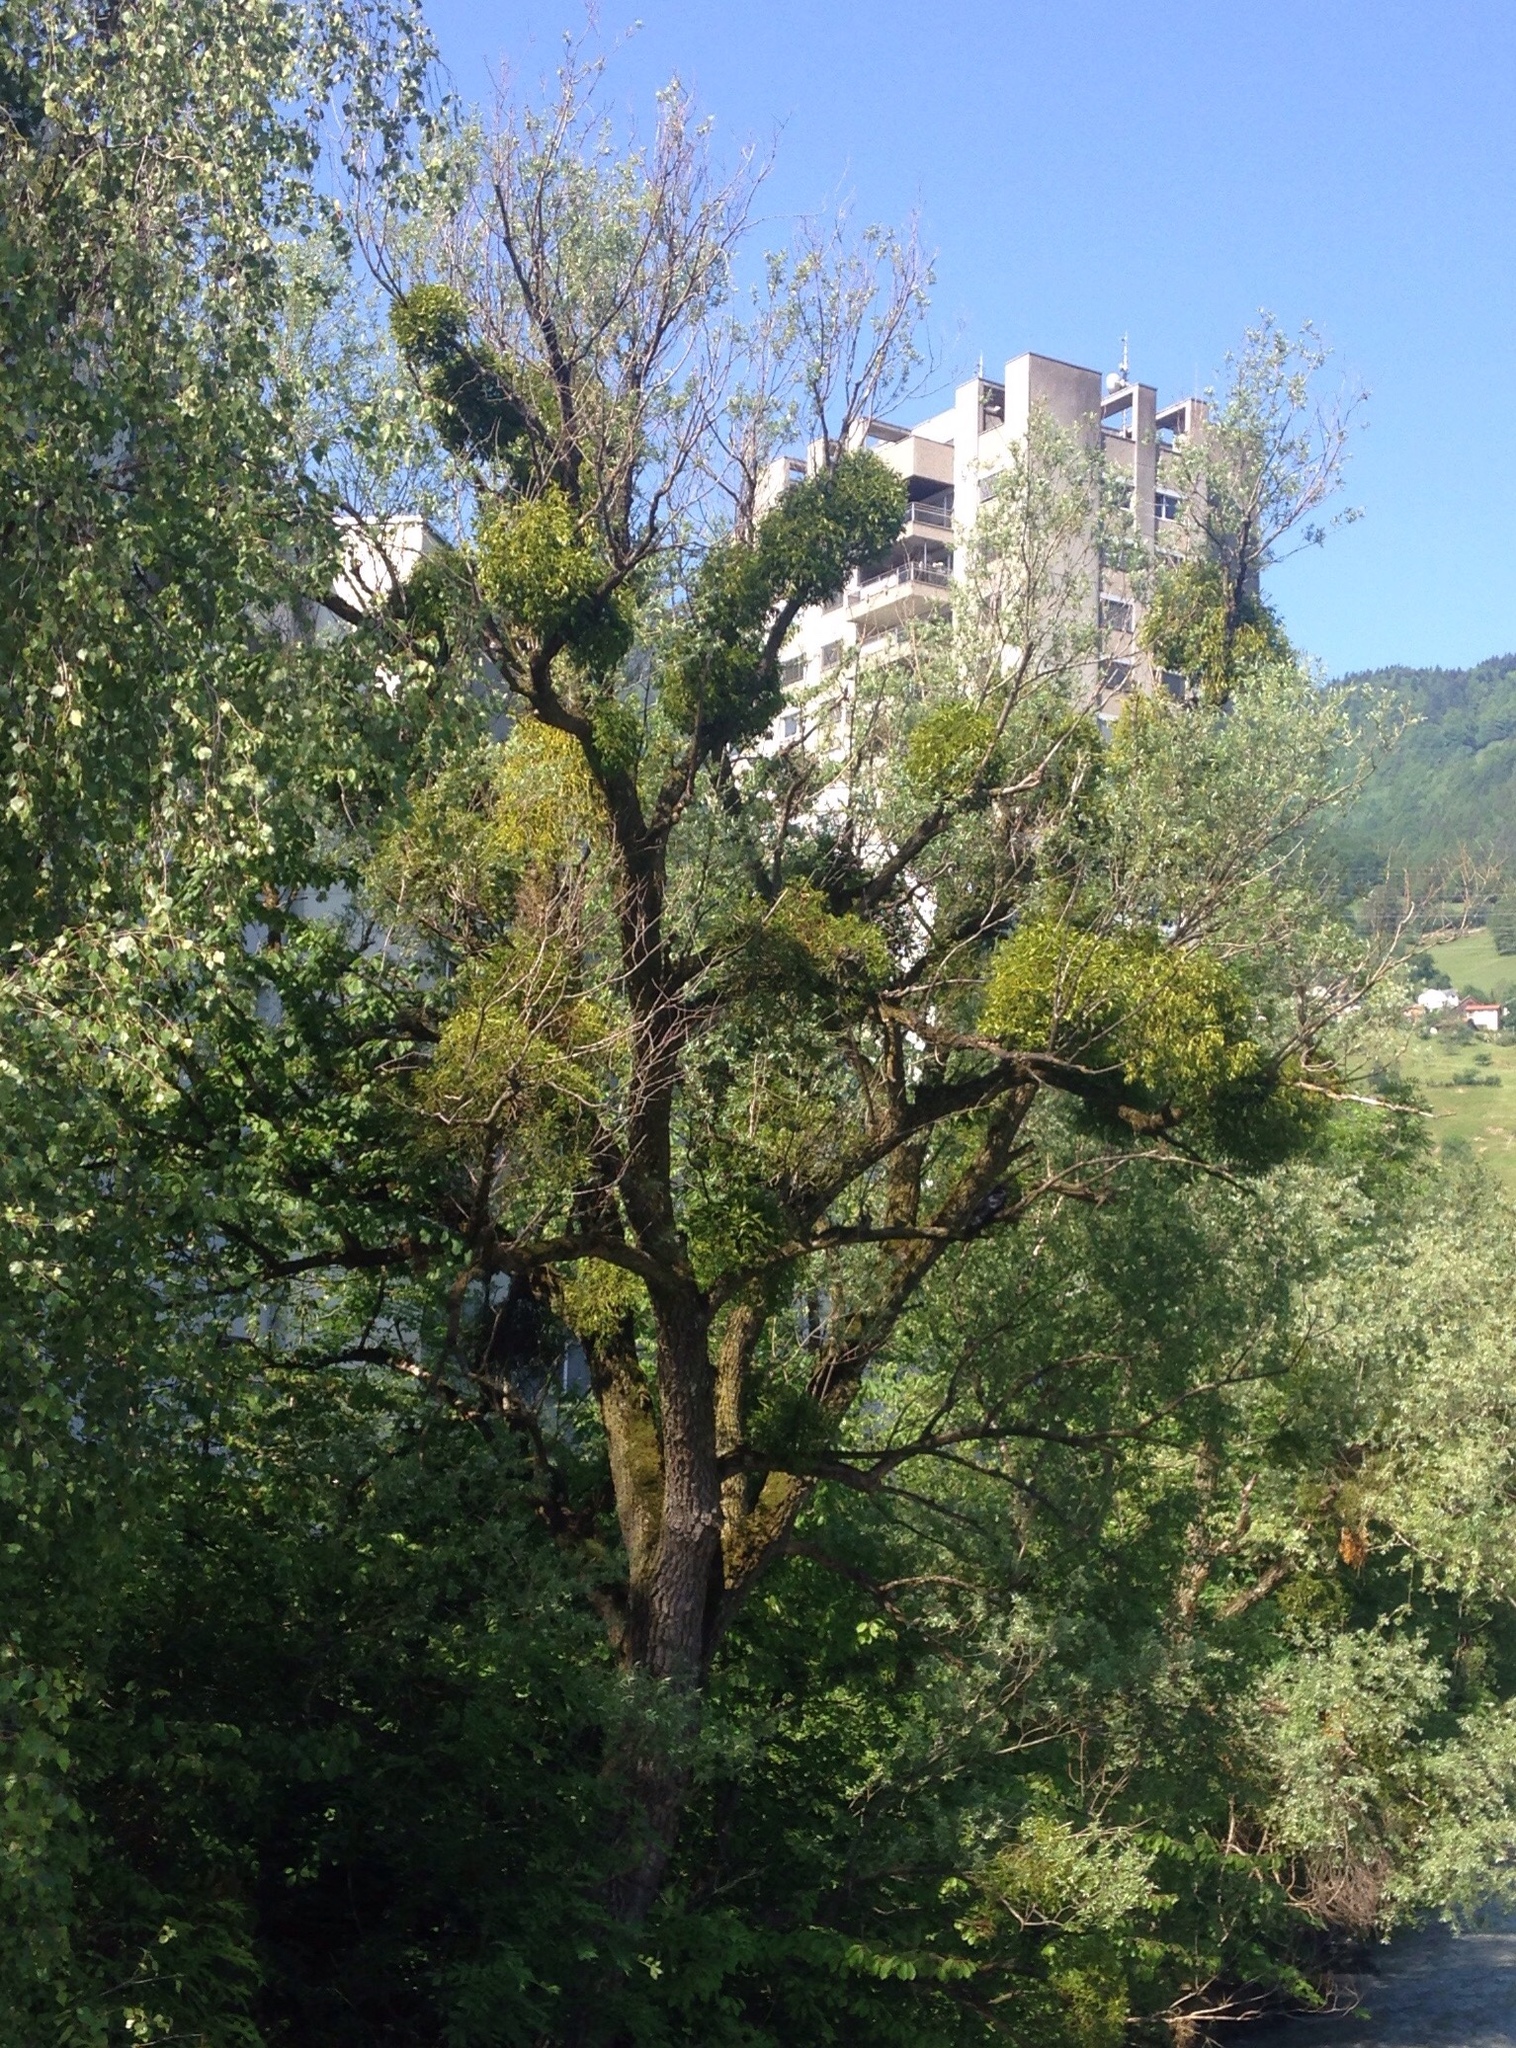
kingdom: Plantae
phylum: Tracheophyta
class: Magnoliopsida
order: Santalales
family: Viscaceae
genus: Viscum
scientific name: Viscum album
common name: Mistletoe
